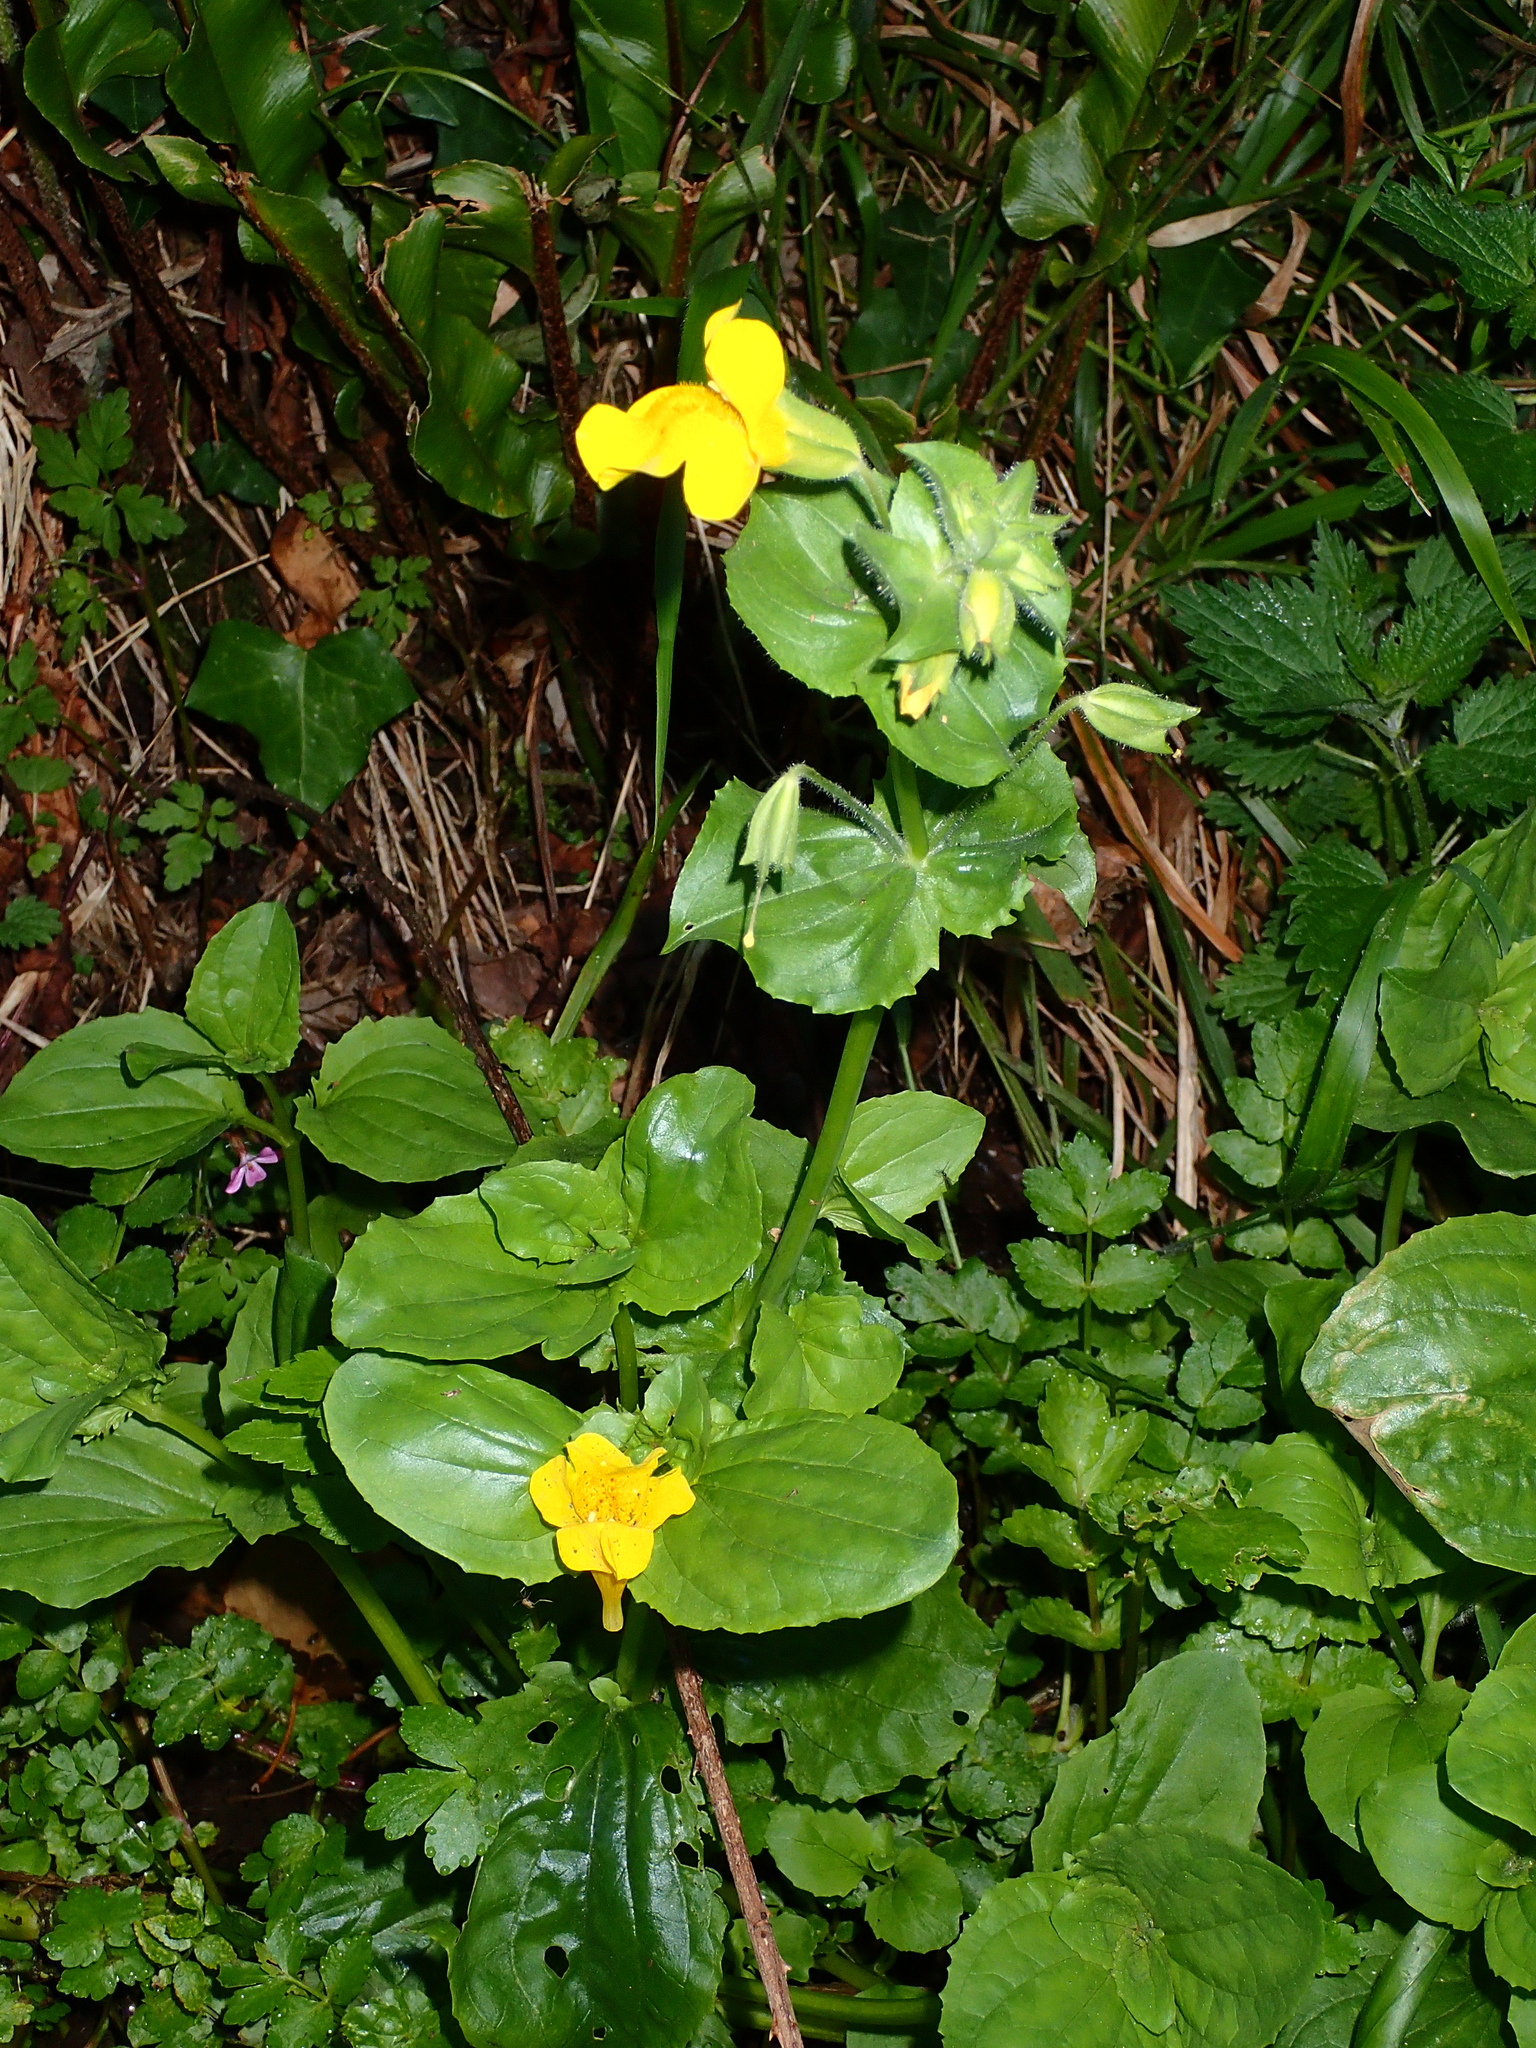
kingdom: Plantae
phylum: Tracheophyta
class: Magnoliopsida
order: Lamiales
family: Phrymaceae
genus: Erythranthe
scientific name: Erythranthe guttata
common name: Monkeyflower
